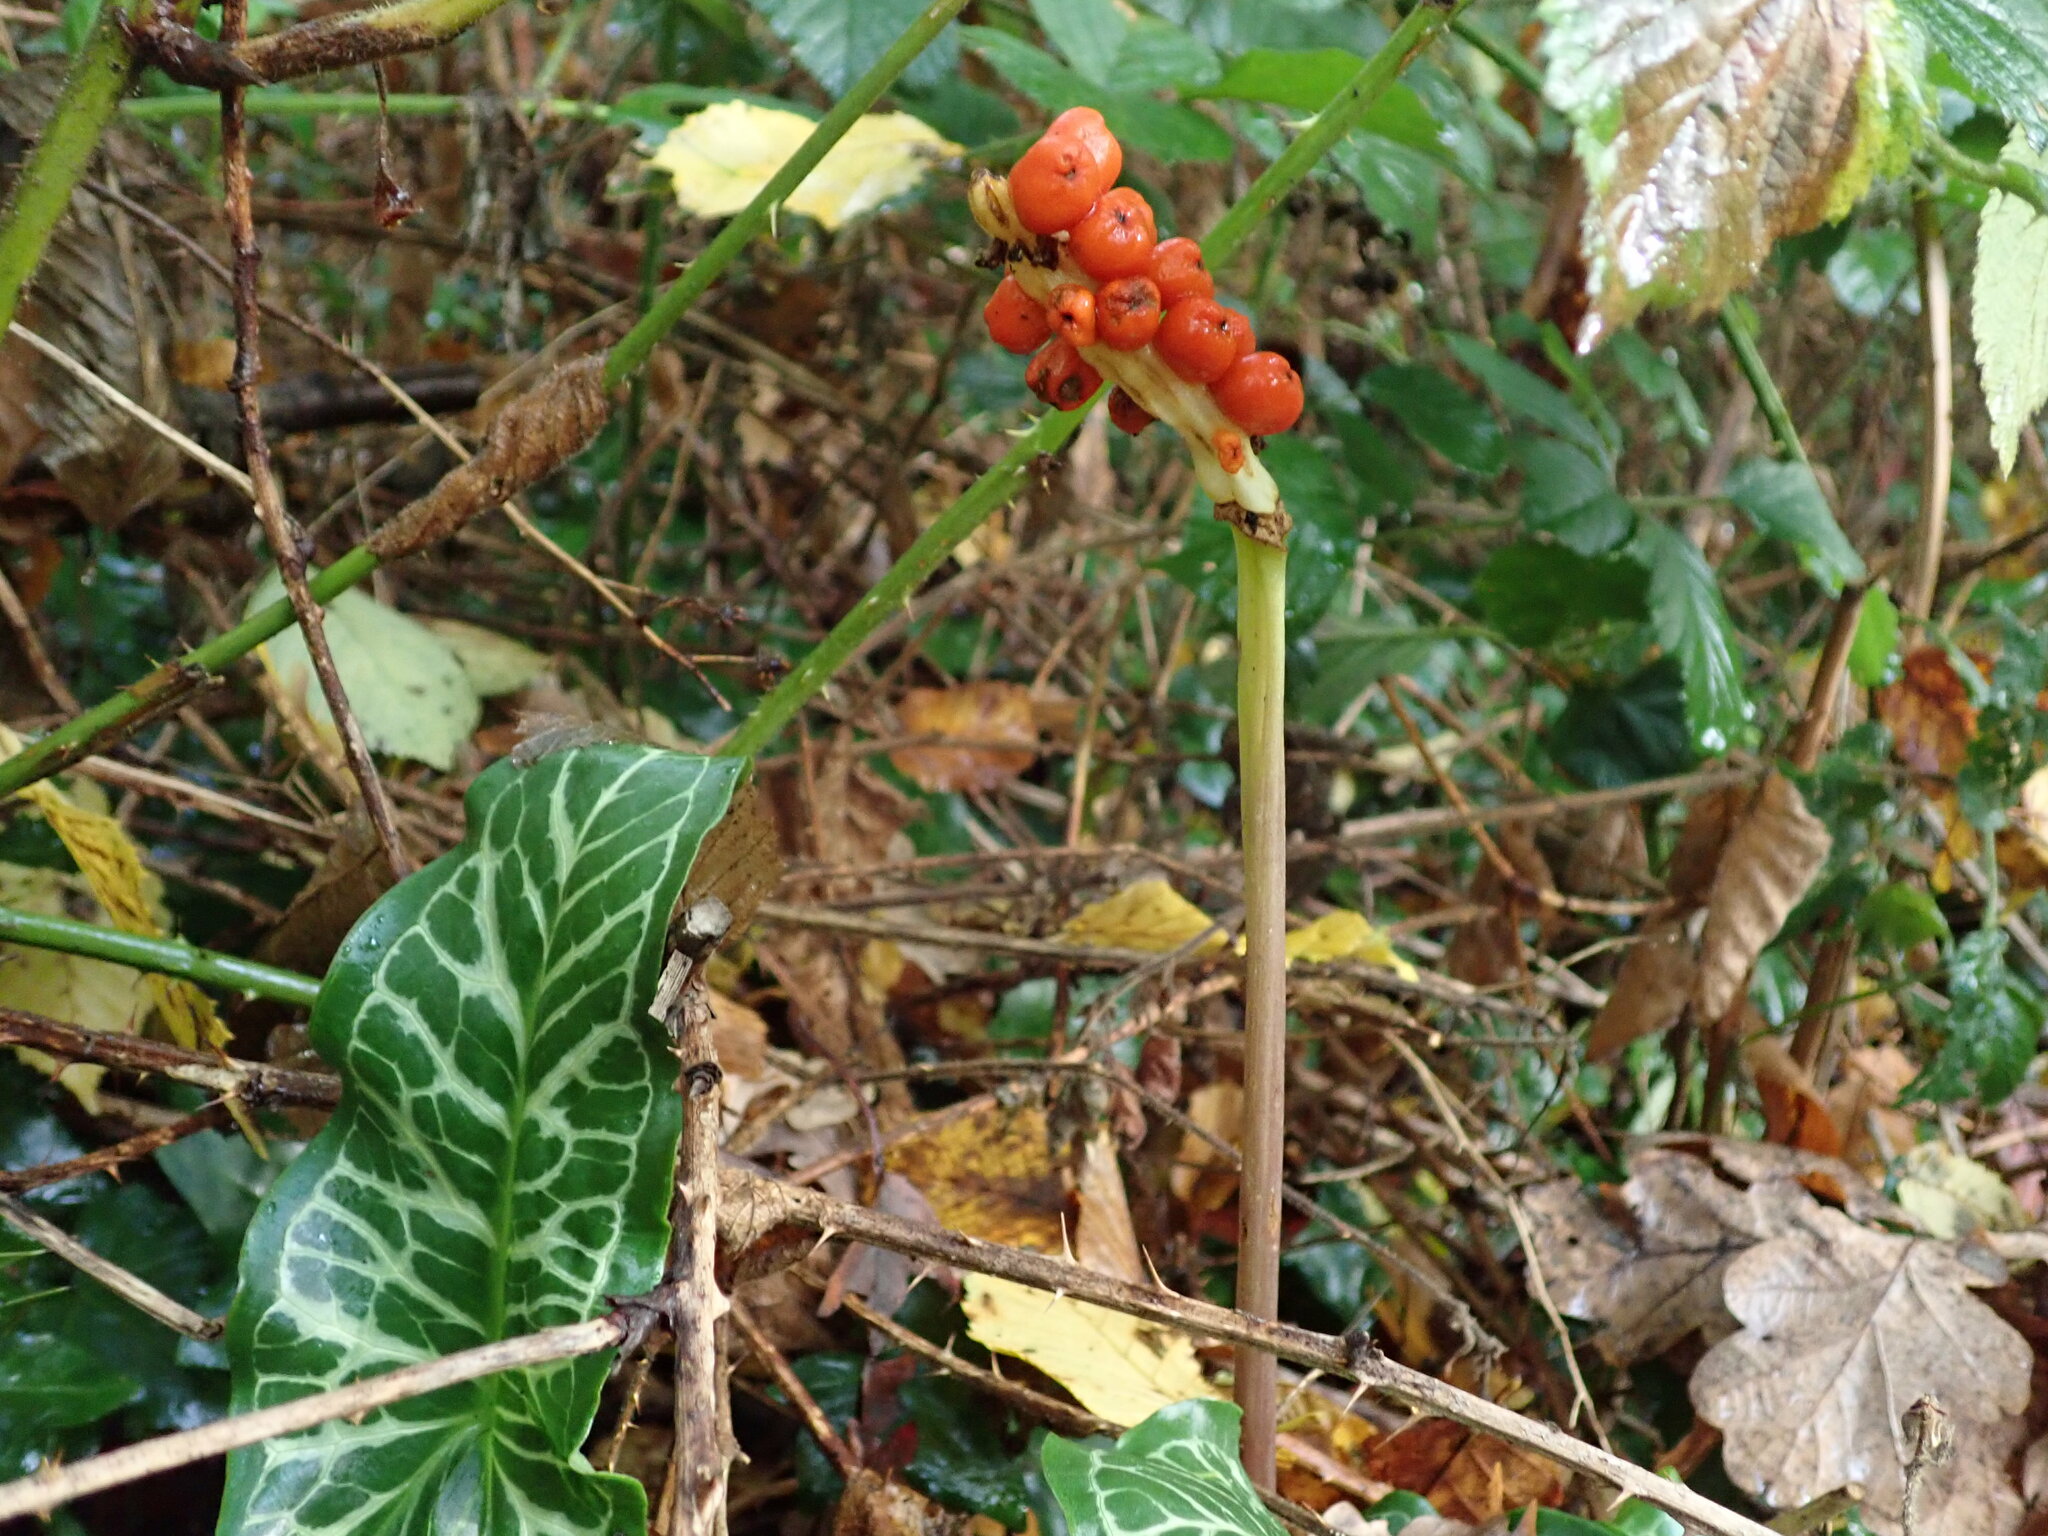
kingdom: Plantae
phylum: Tracheophyta
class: Liliopsida
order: Alismatales
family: Araceae
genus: Arum
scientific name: Arum italicum
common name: Italian lords-and-ladies
